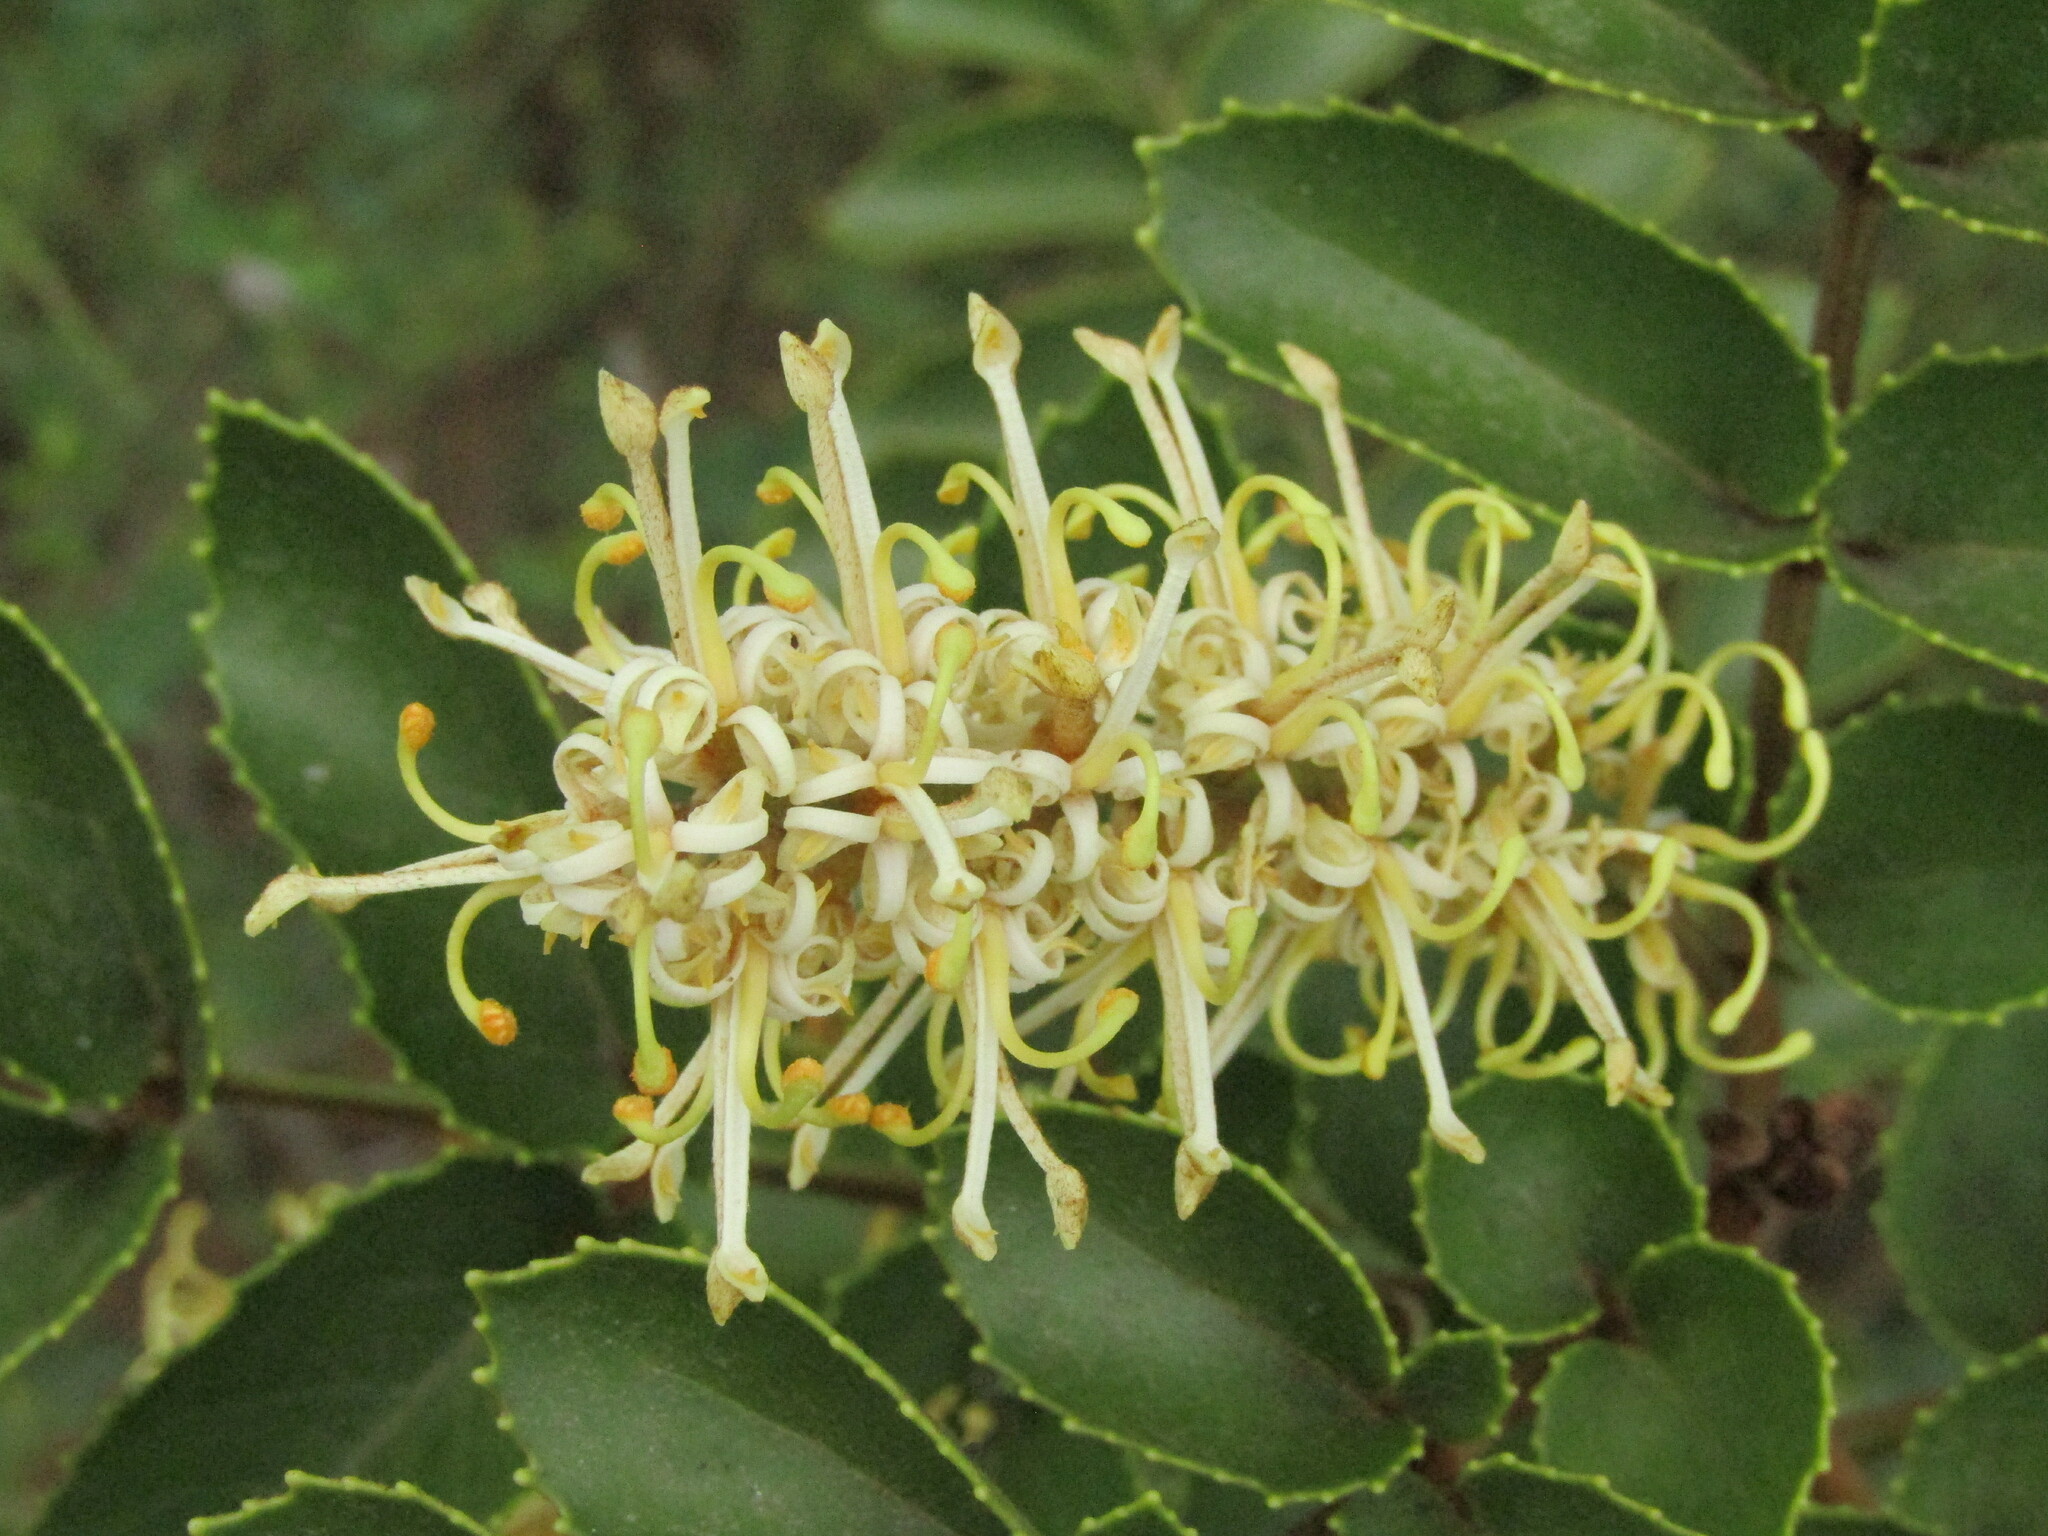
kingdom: Plantae
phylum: Tracheophyta
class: Magnoliopsida
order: Proteales
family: Proteaceae
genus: Gevuina
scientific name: Gevuina avellana
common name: Chilean hazel
